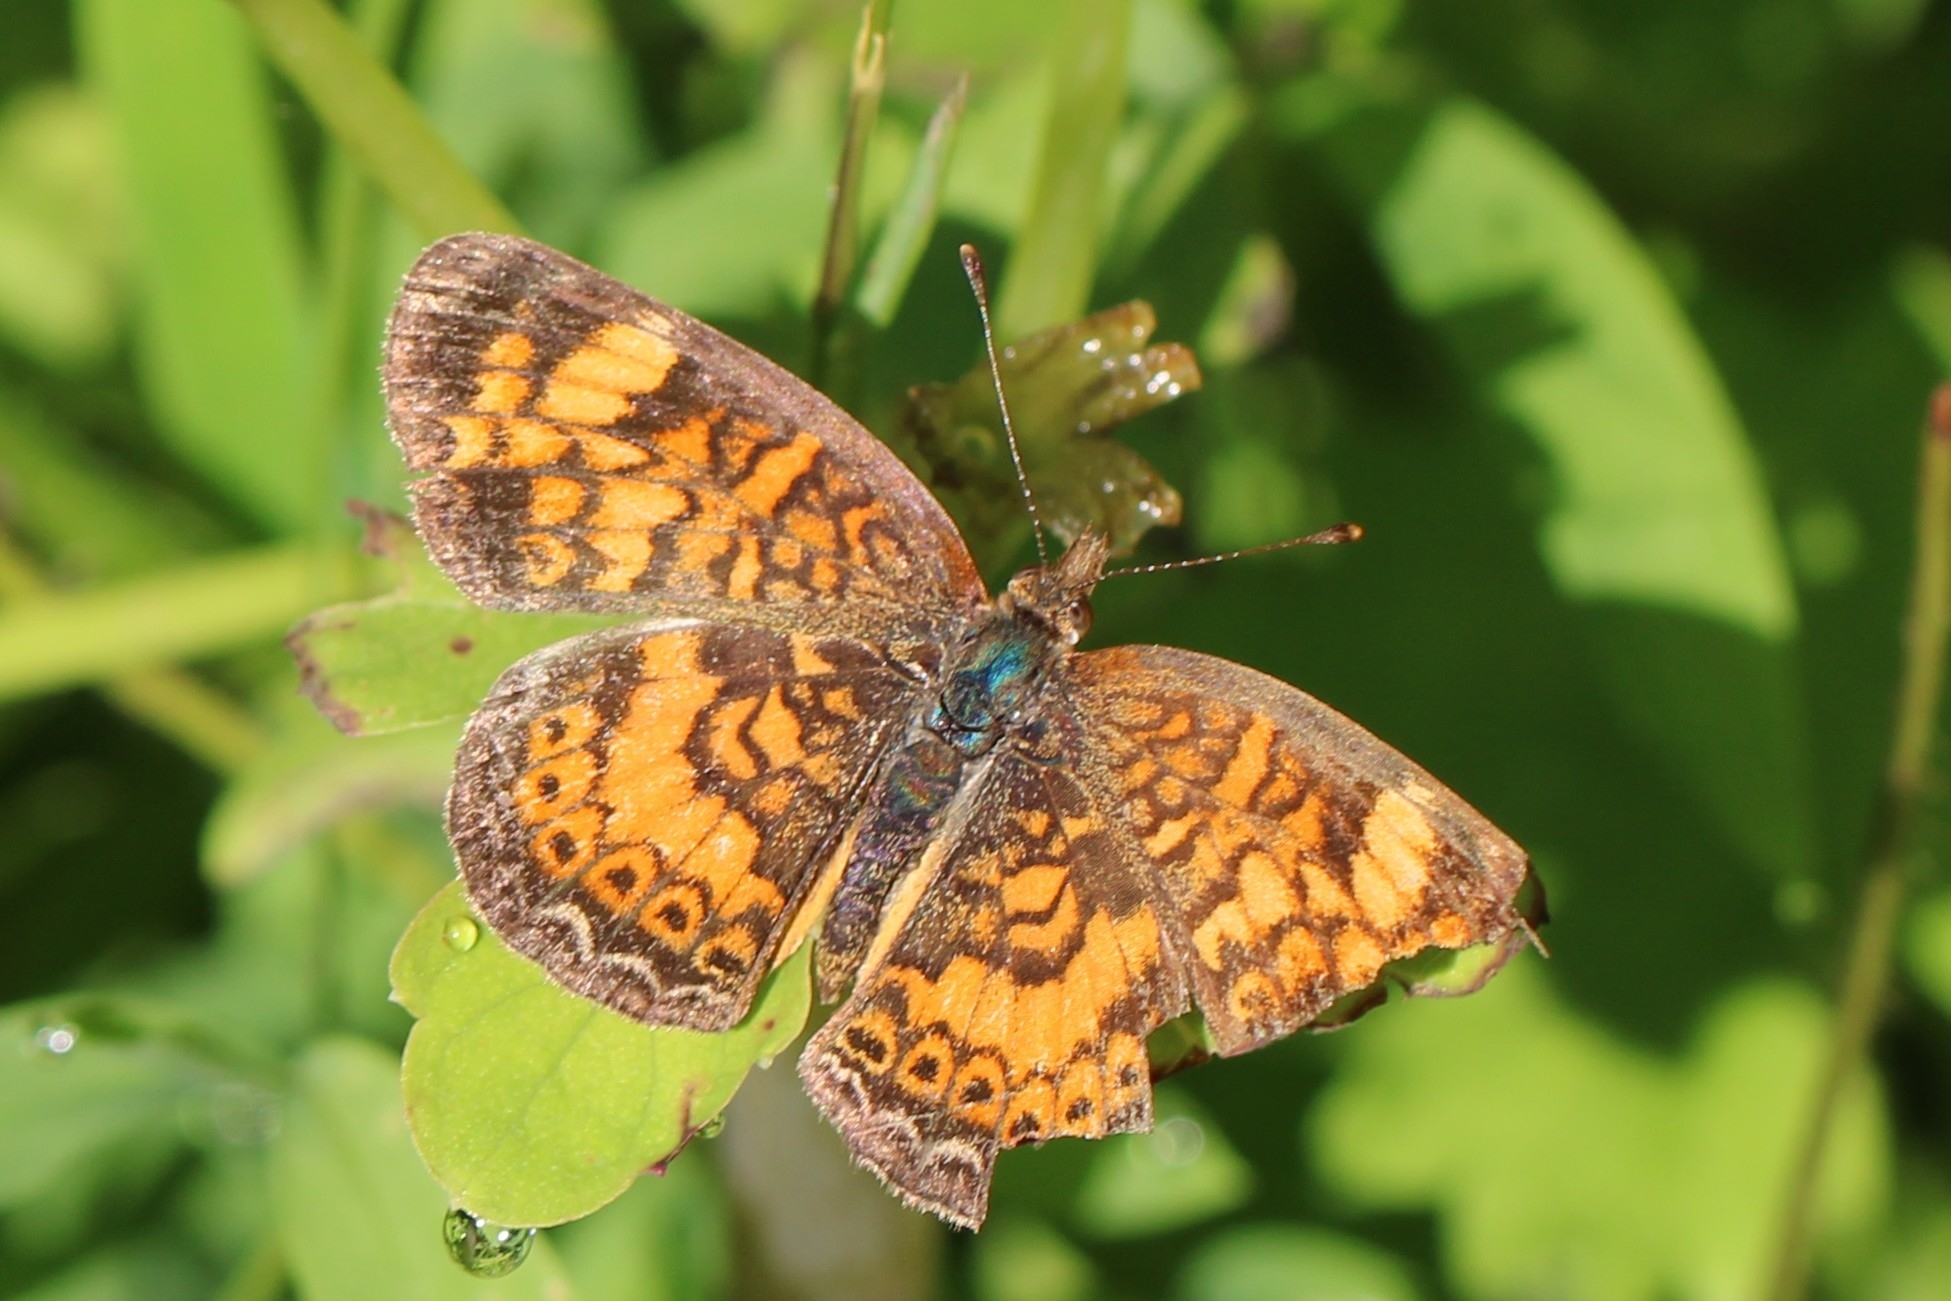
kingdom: Animalia
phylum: Arthropoda
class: Insecta
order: Lepidoptera
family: Nymphalidae
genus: Phyciodes
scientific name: Phyciodes tharos
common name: Pearl crescent
